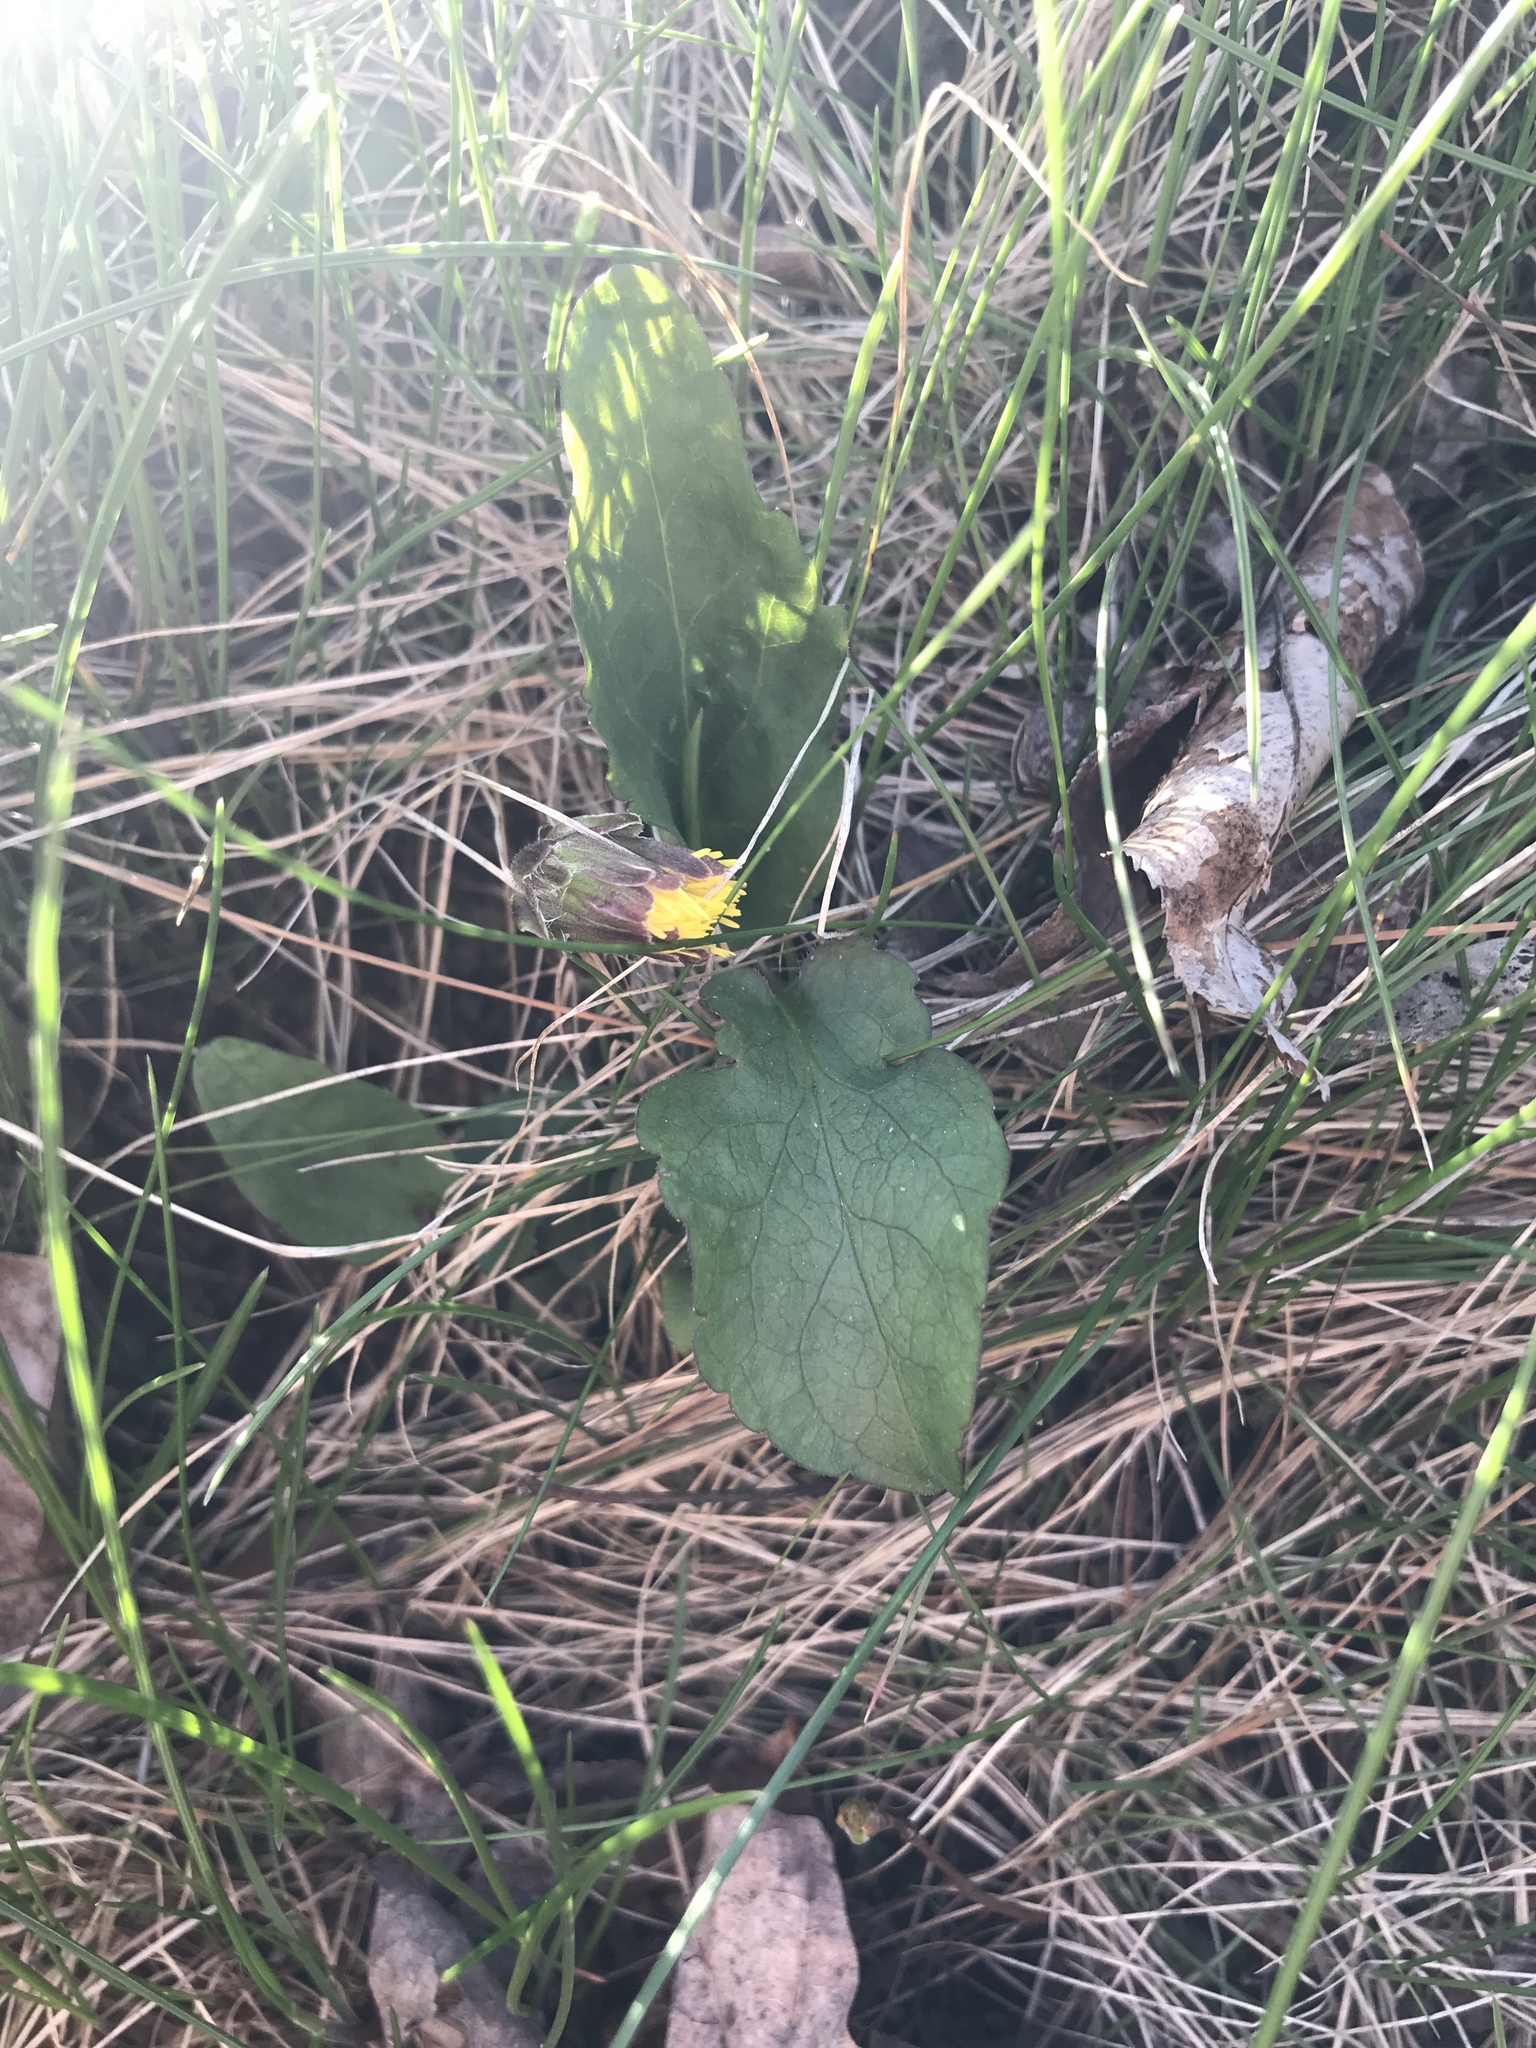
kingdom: Plantae
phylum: Tracheophyta
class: Magnoliopsida
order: Asterales
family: Asteraceae
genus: Tussilago
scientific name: Tussilago farfara
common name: Coltsfoot
